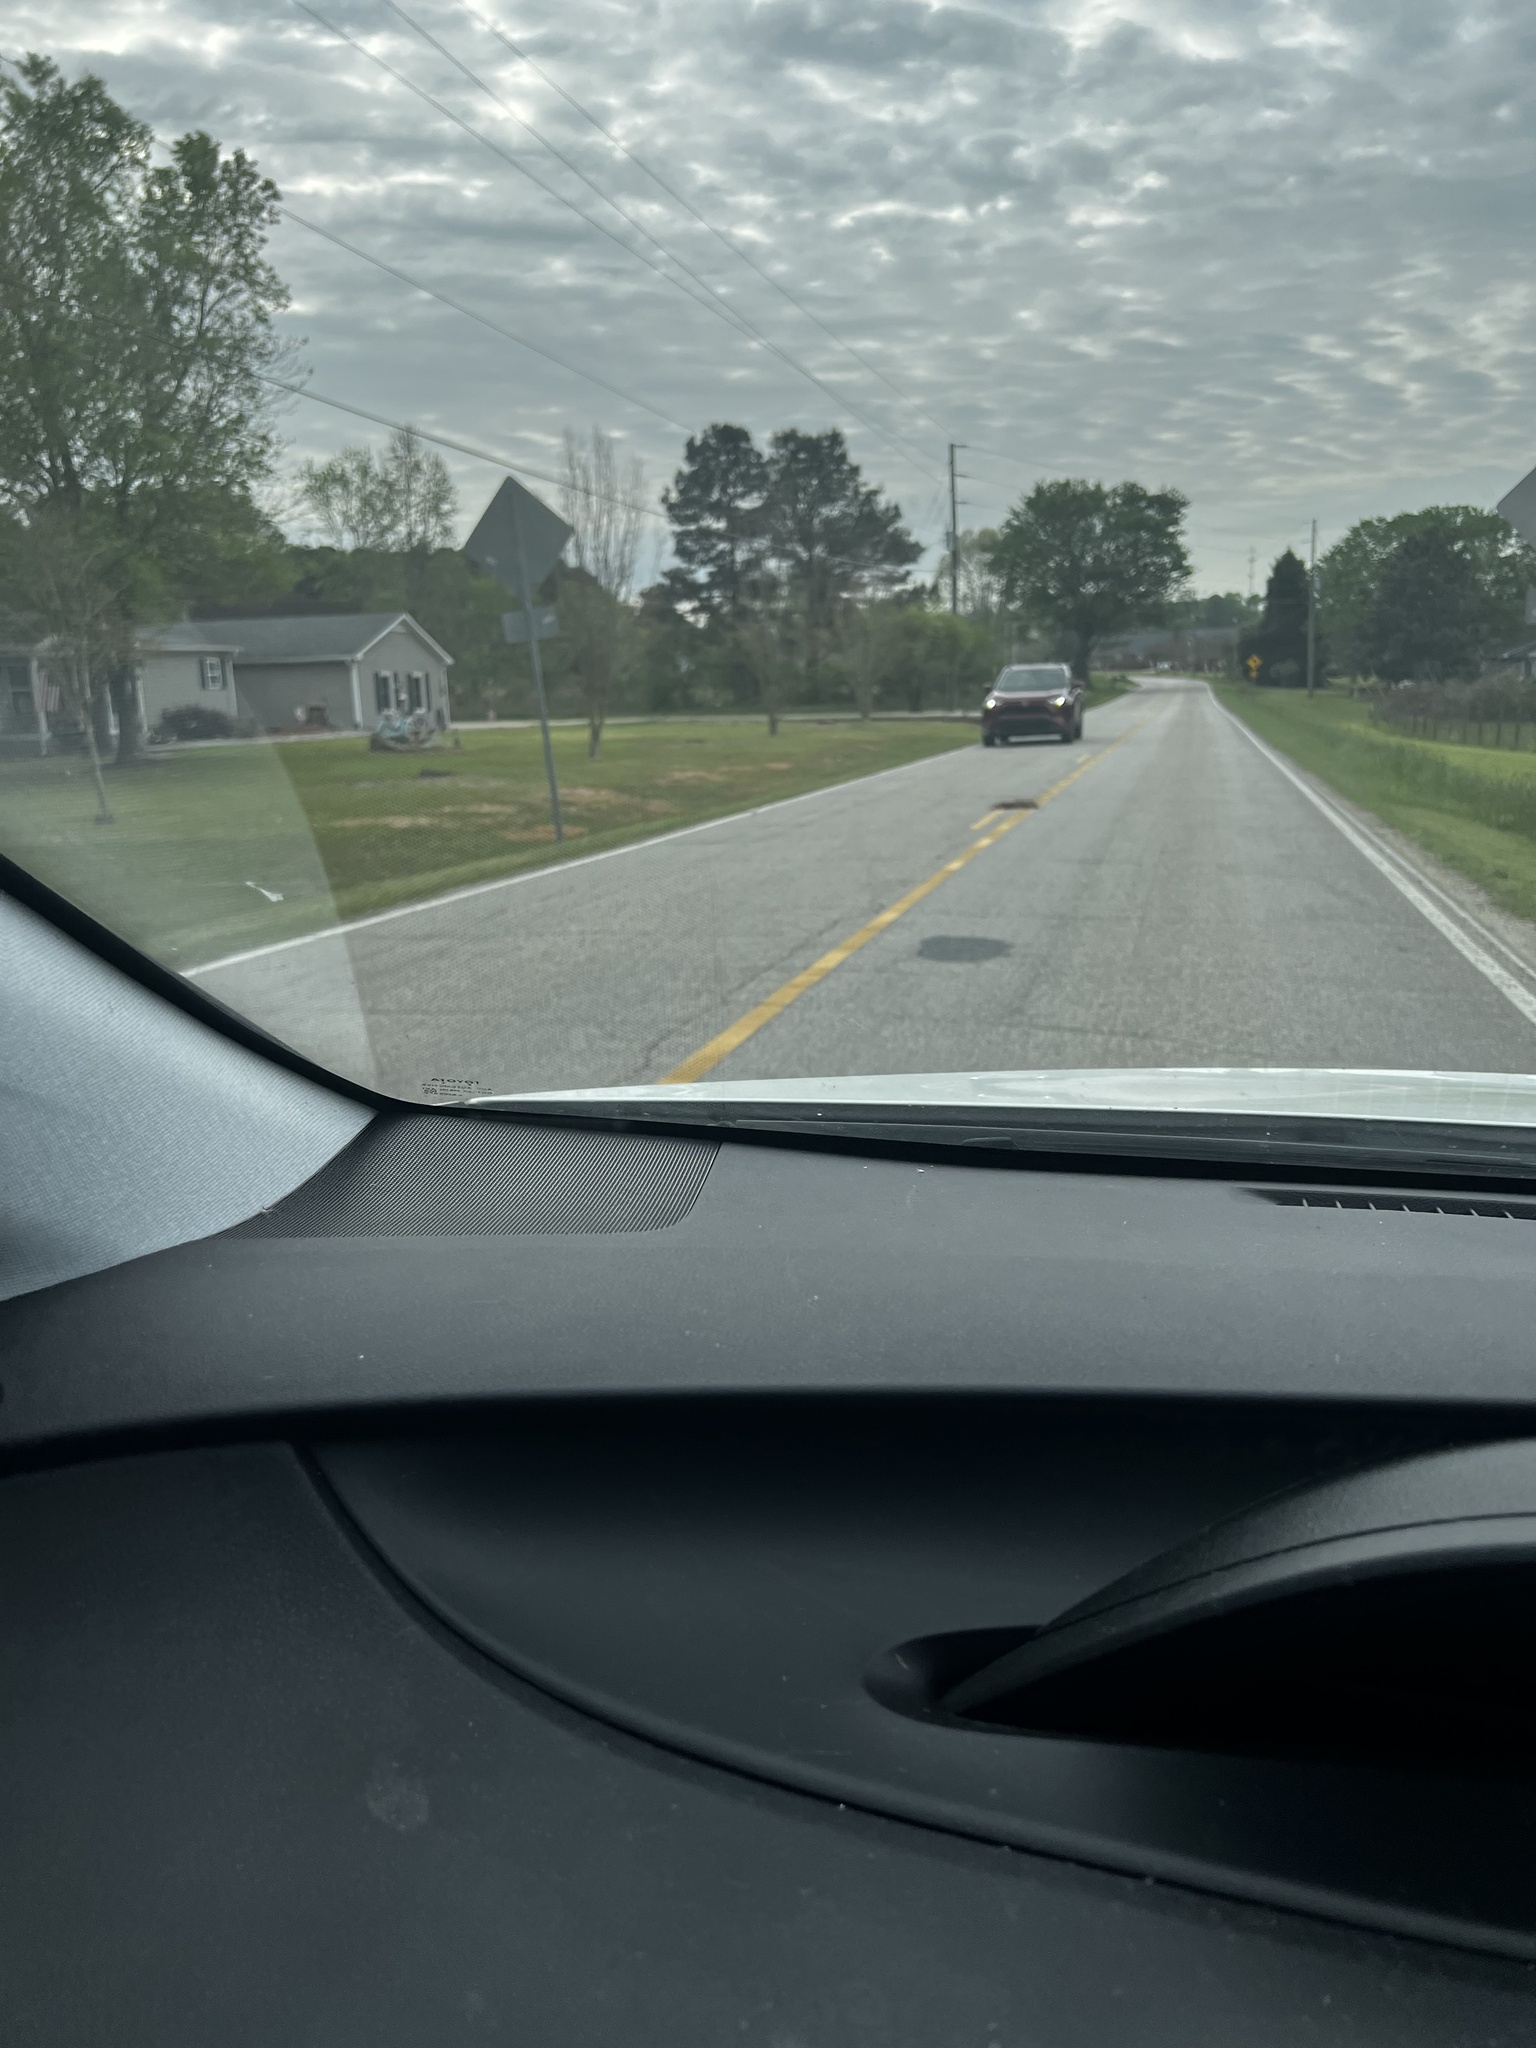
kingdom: Animalia
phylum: Chordata
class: Mammalia
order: Didelphimorphia
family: Didelphidae
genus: Didelphis
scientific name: Didelphis virginiana
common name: Virginia opossum
